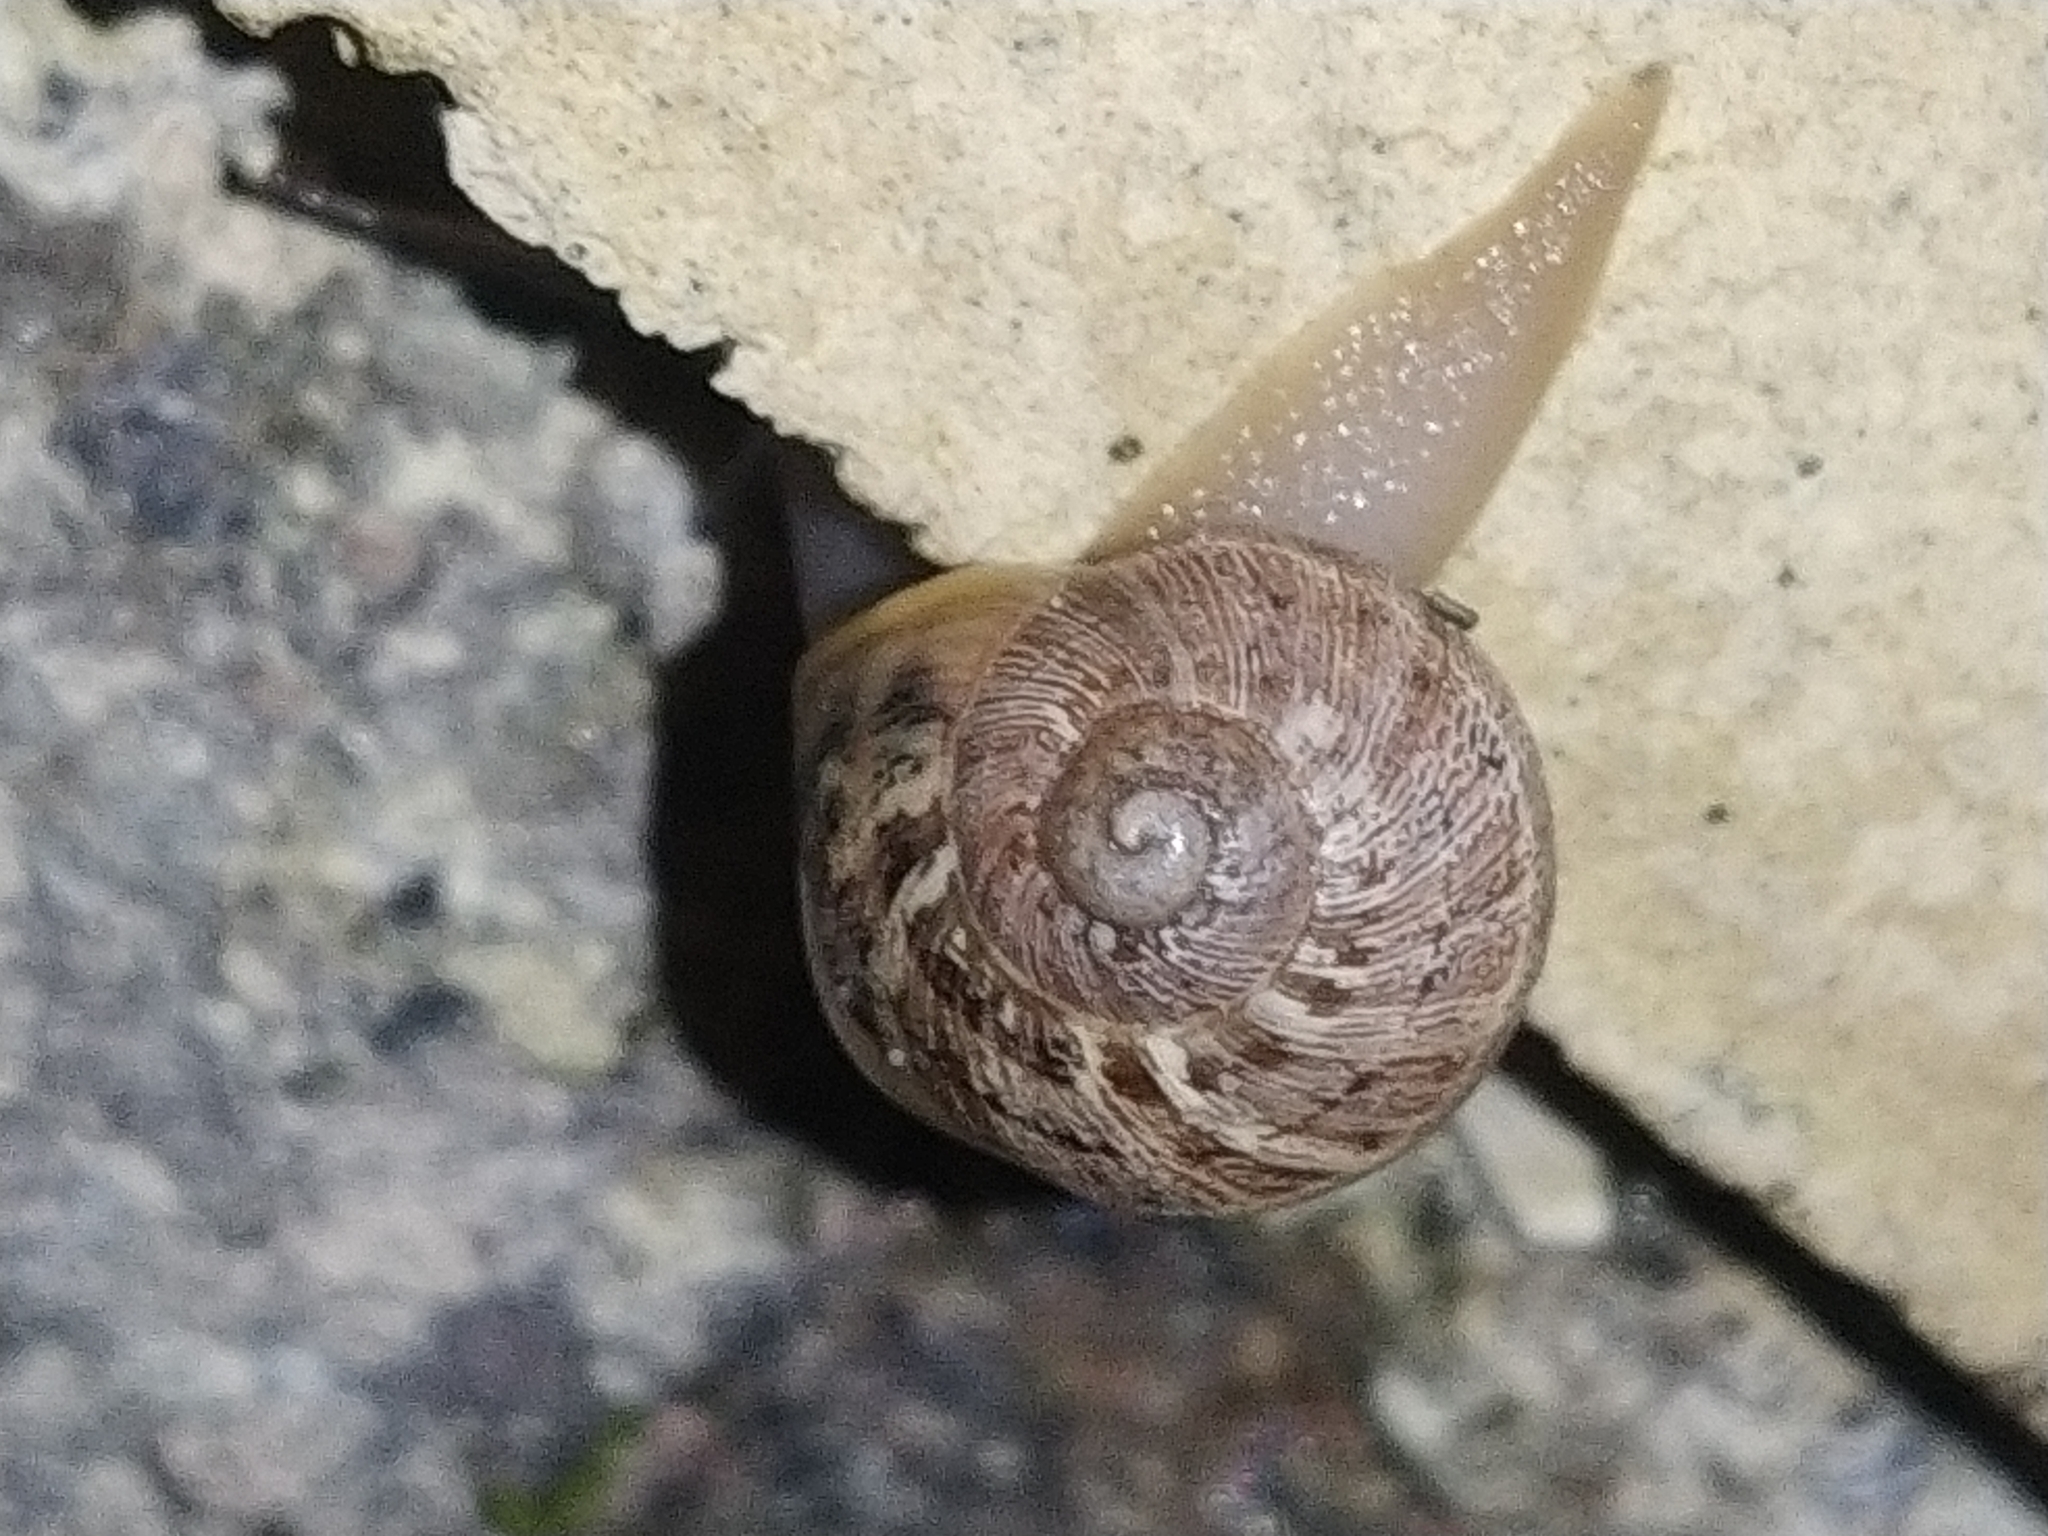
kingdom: Animalia
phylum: Mollusca
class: Gastropoda
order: Stylommatophora
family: Helicidae
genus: Cornu
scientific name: Cornu aspersum
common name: Brown garden snail
